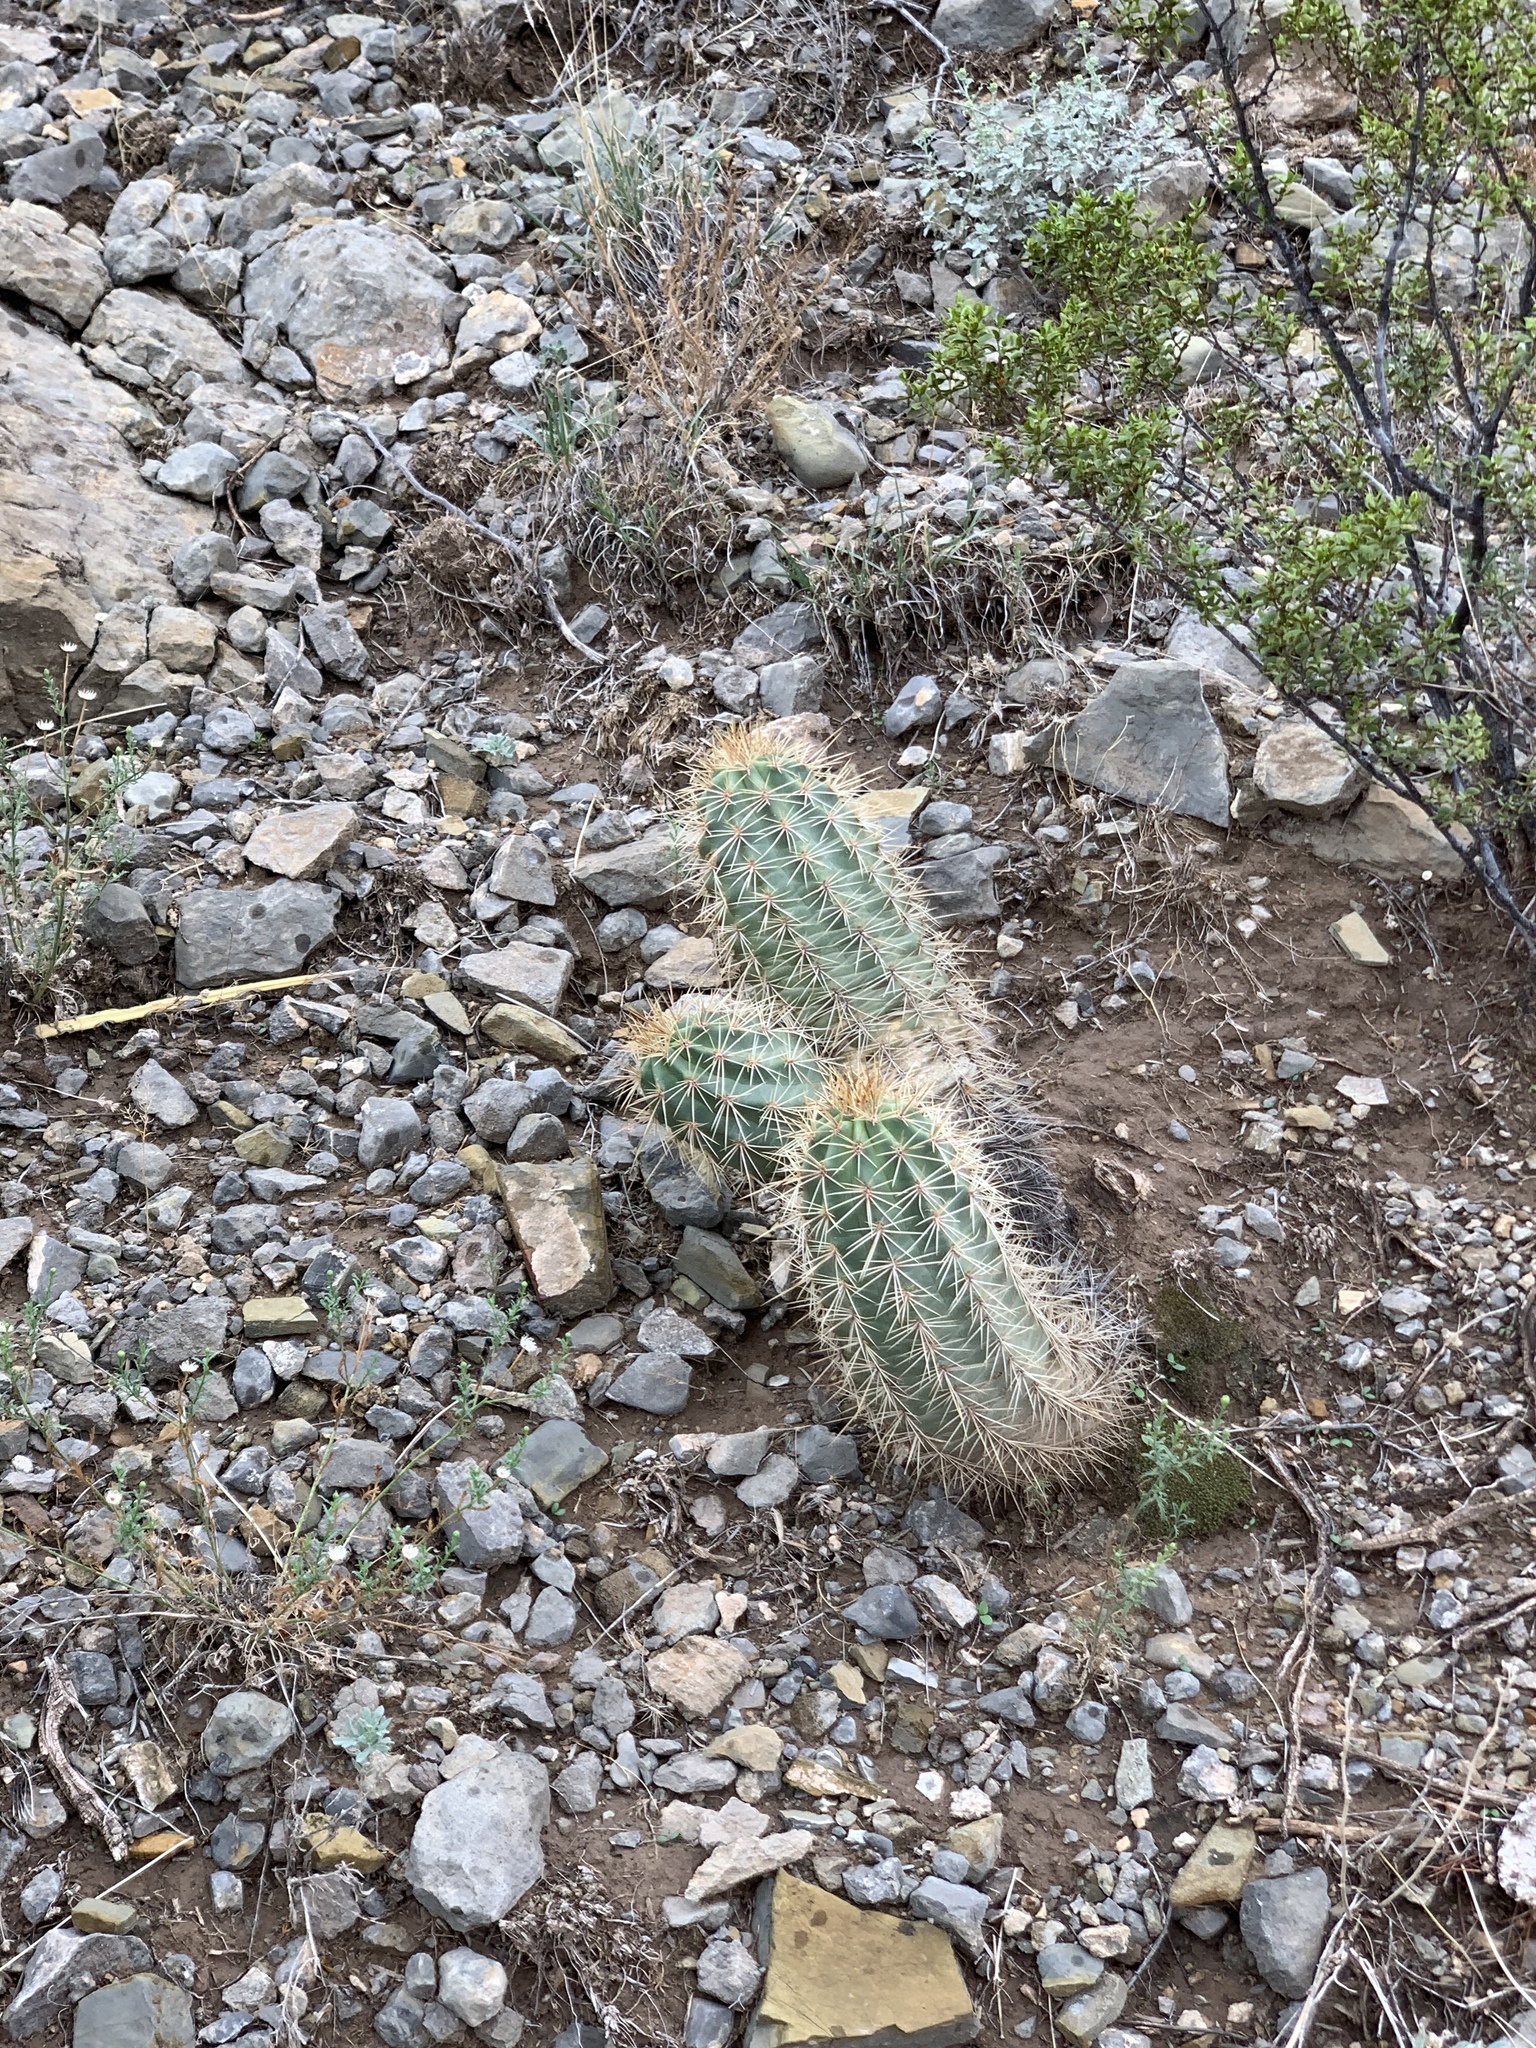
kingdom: Plantae
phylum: Tracheophyta
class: Magnoliopsida
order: Caryophyllales
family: Cactaceae
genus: Echinocereus
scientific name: Echinocereus coccineus
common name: Scarlet hedgehog cactus
